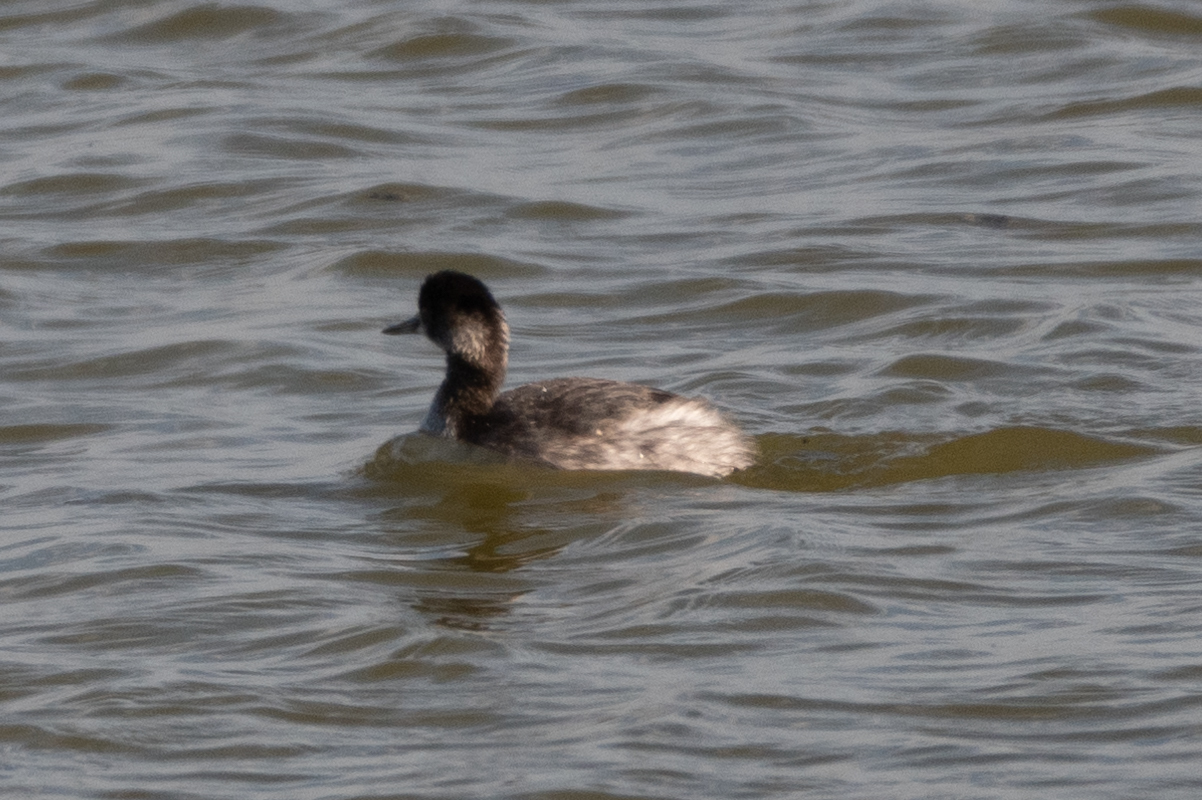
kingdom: Animalia
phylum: Chordata
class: Aves
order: Podicipediformes
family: Podicipedidae
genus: Podiceps
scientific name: Podiceps nigricollis
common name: Black-necked grebe
